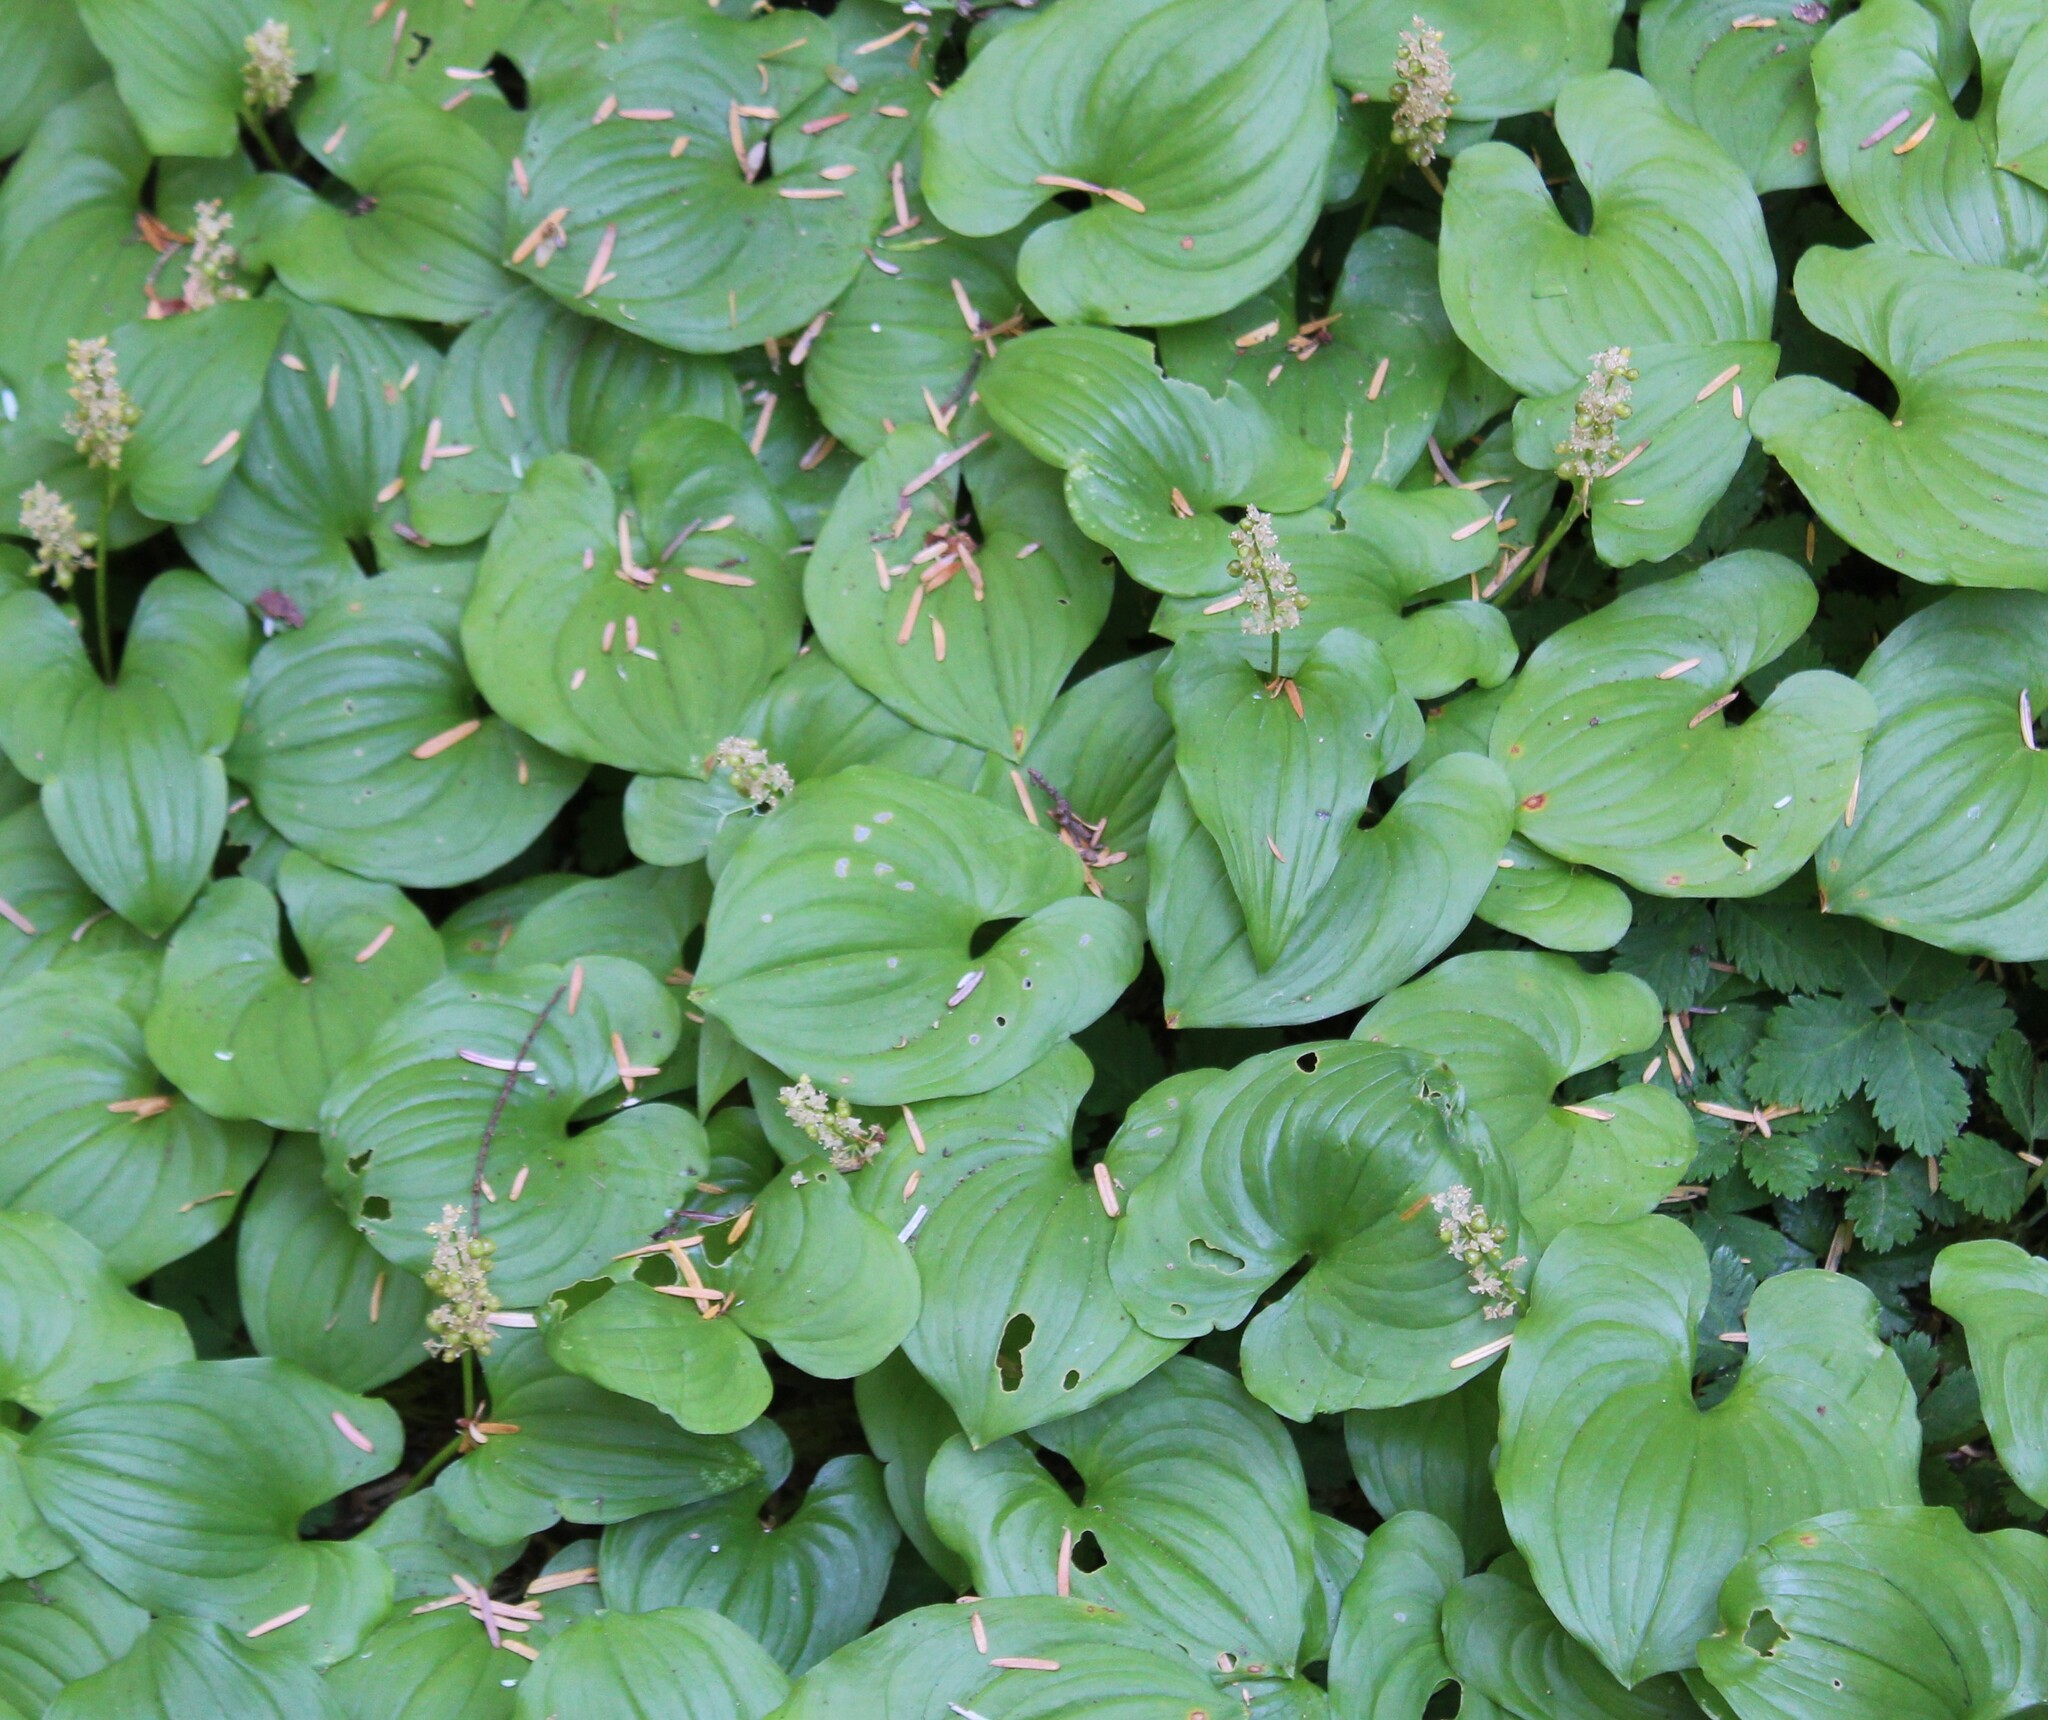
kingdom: Plantae
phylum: Tracheophyta
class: Liliopsida
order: Asparagales
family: Asparagaceae
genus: Maianthemum
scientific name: Maianthemum dilatatum
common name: False lily-of-the-valley
